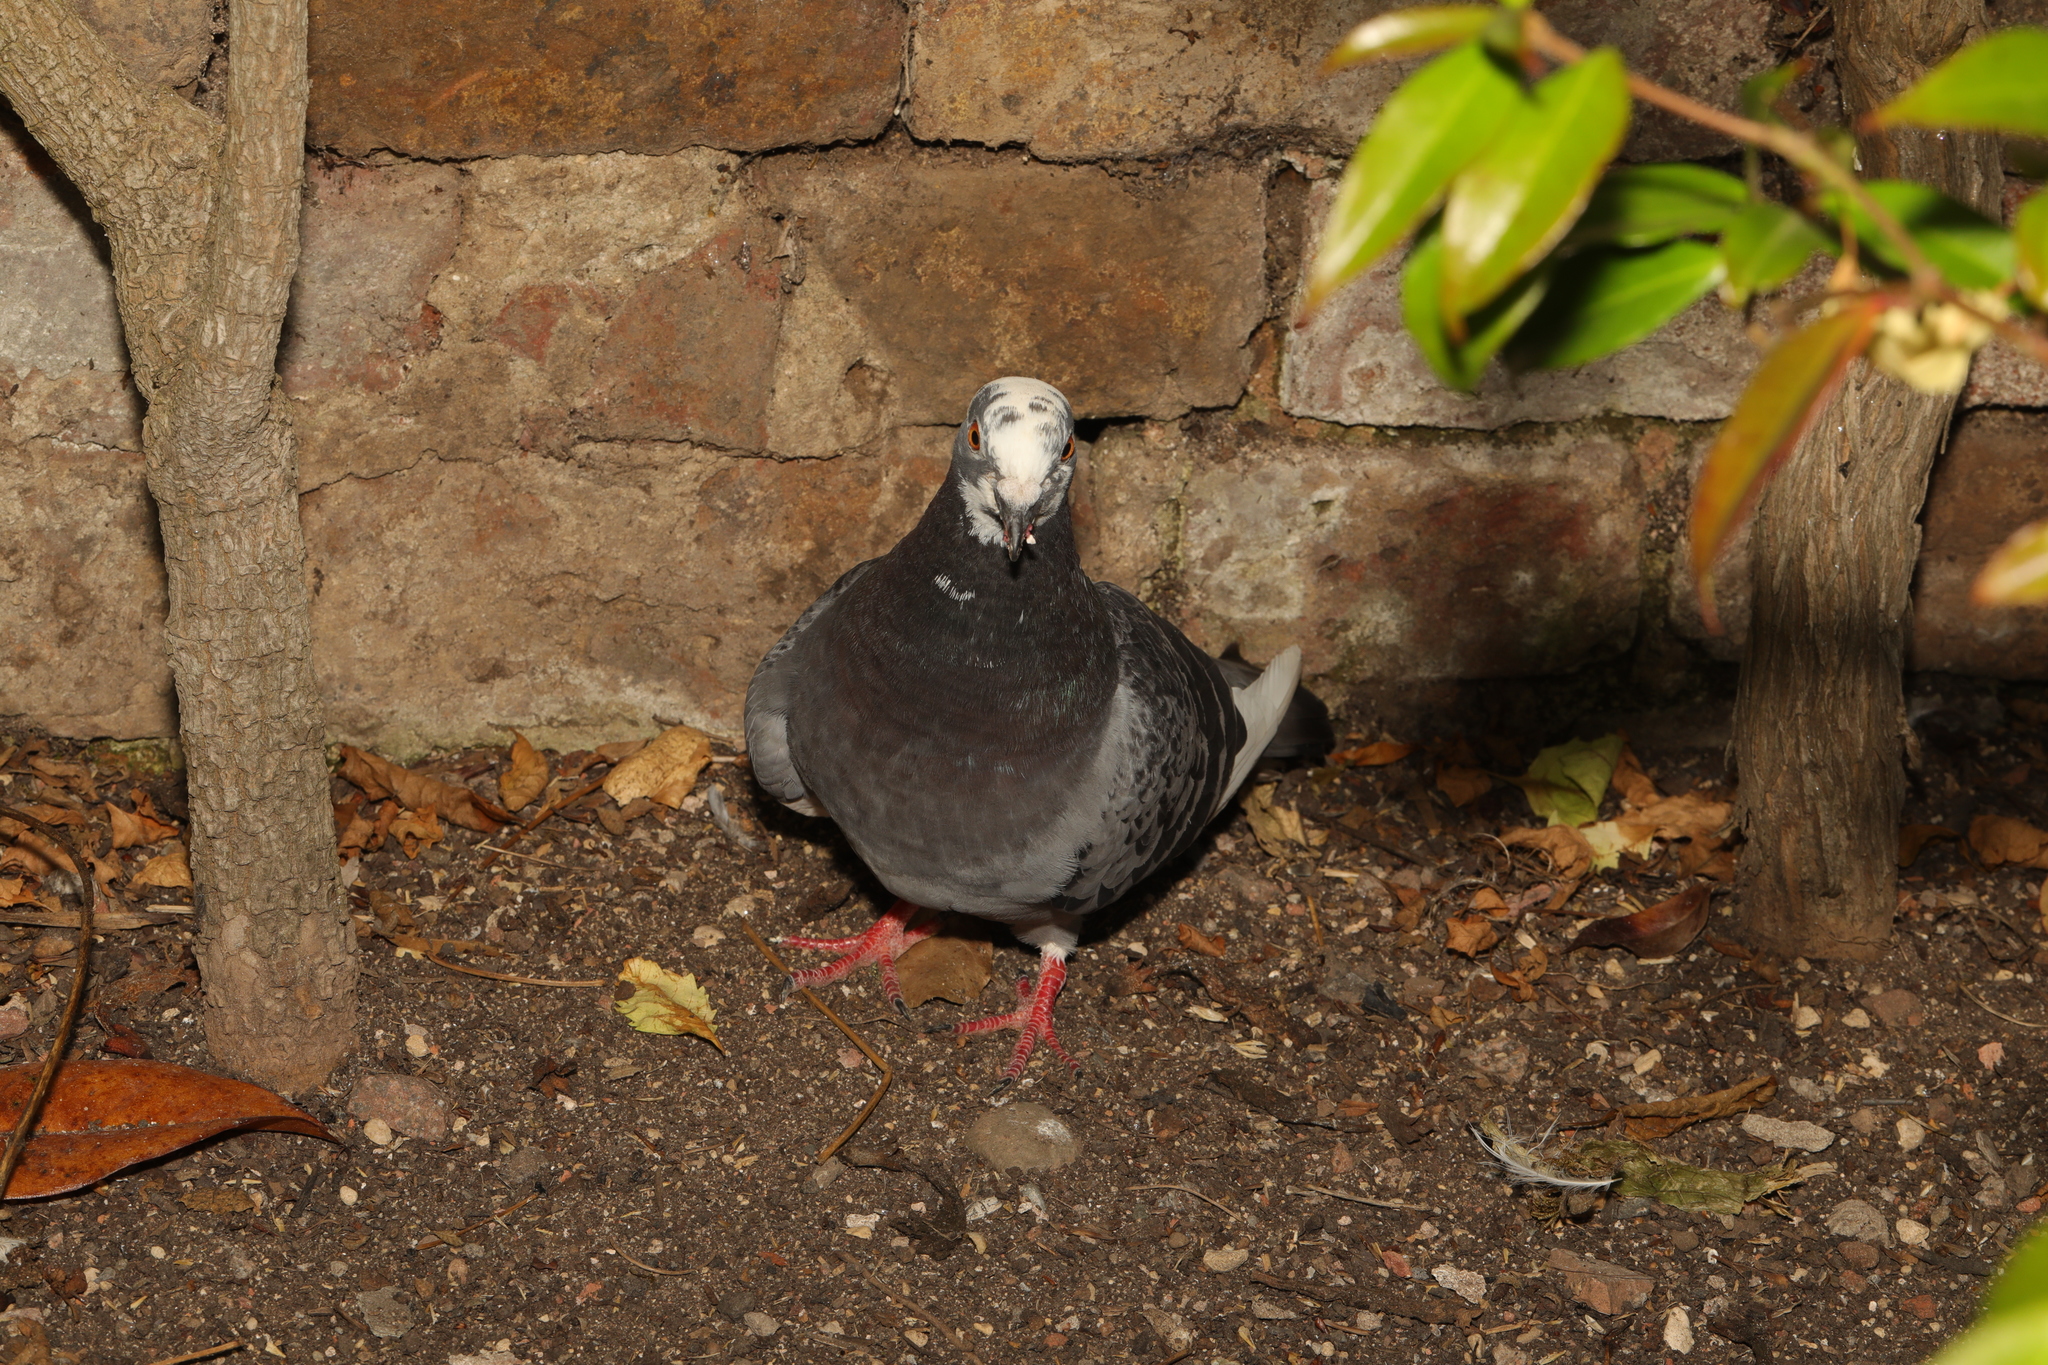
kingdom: Animalia
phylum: Chordata
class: Aves
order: Columbiformes
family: Columbidae
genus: Columba
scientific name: Columba livia
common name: Rock pigeon
